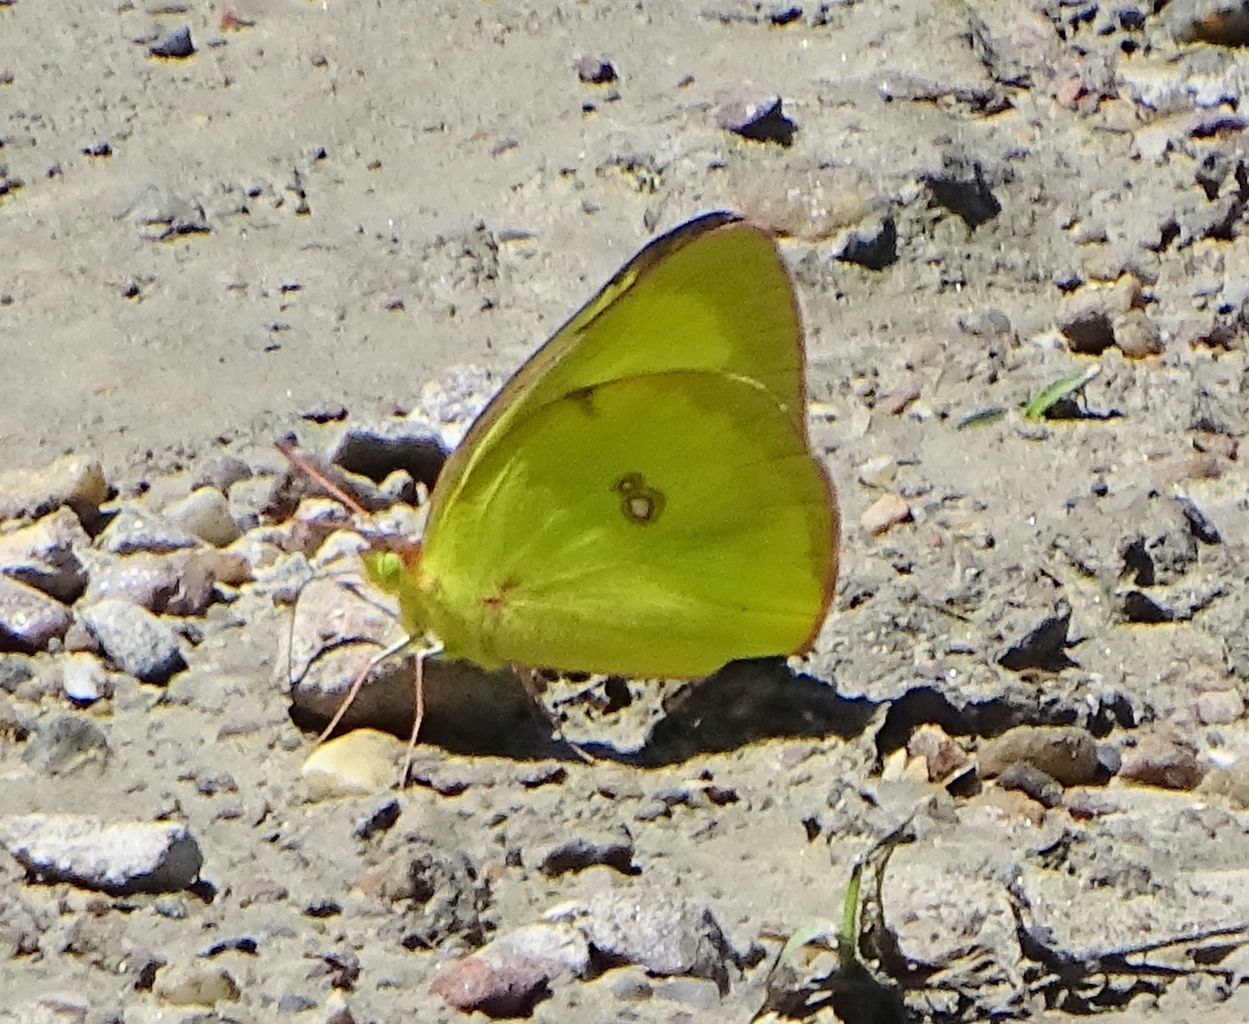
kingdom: Animalia
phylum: Arthropoda
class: Insecta
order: Lepidoptera
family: Pieridae
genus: Colias
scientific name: Colias philodice
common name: Clouded sulphur
